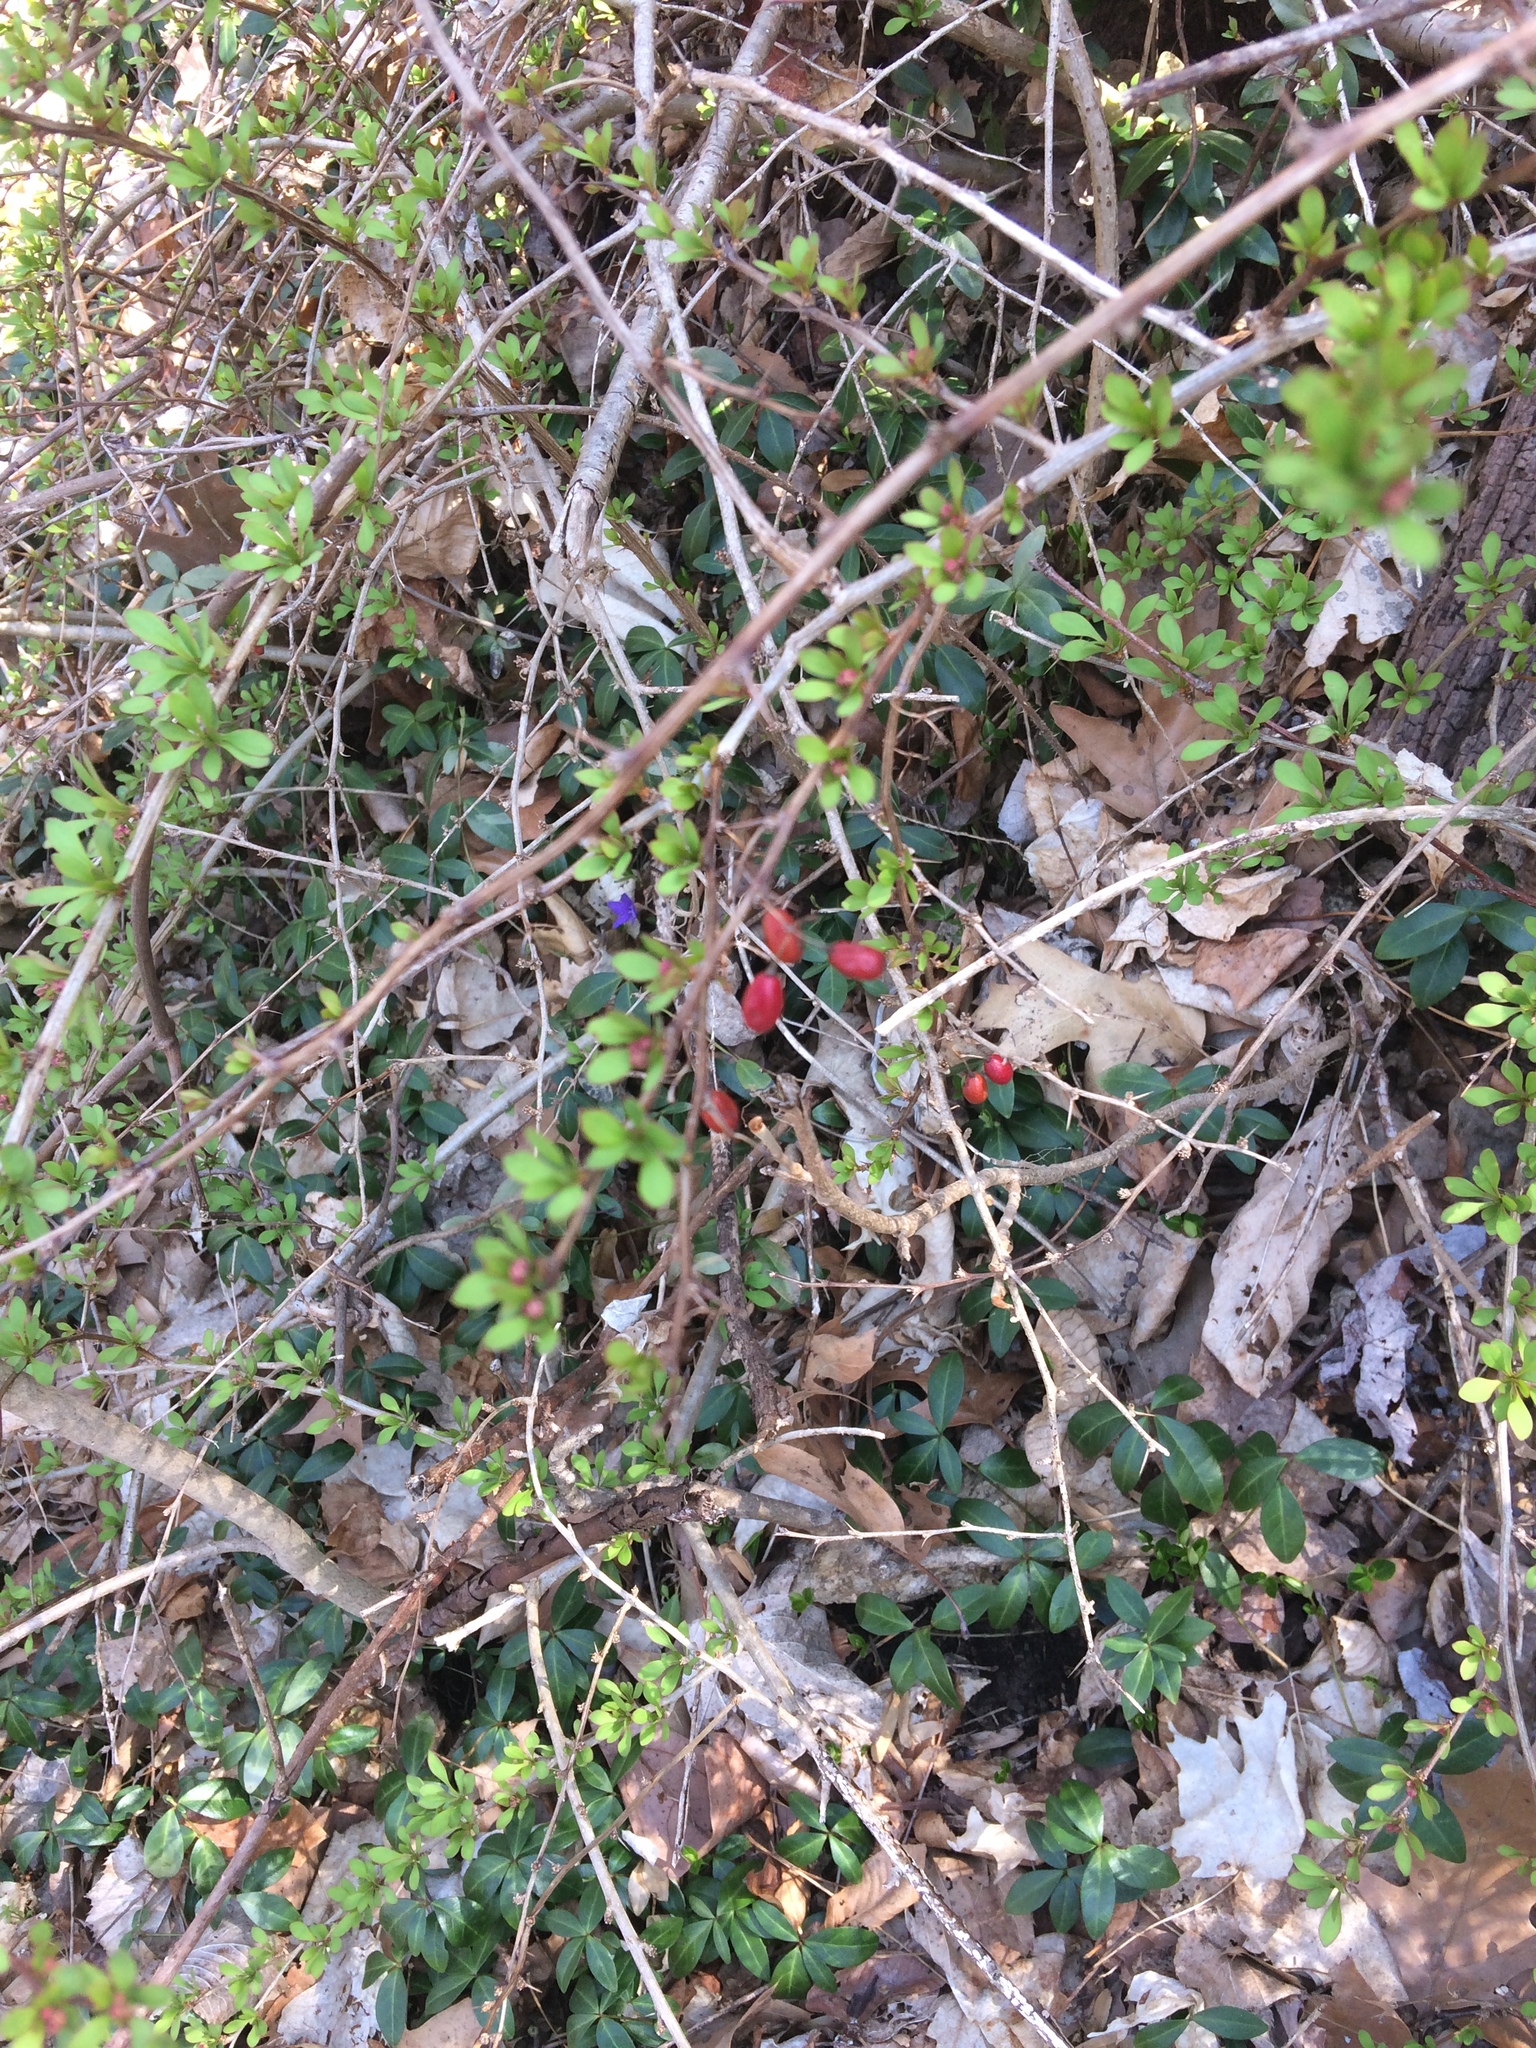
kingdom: Plantae
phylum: Tracheophyta
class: Magnoliopsida
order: Ranunculales
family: Berberidaceae
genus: Berberis
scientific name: Berberis thunbergii
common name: Japanese barberry
